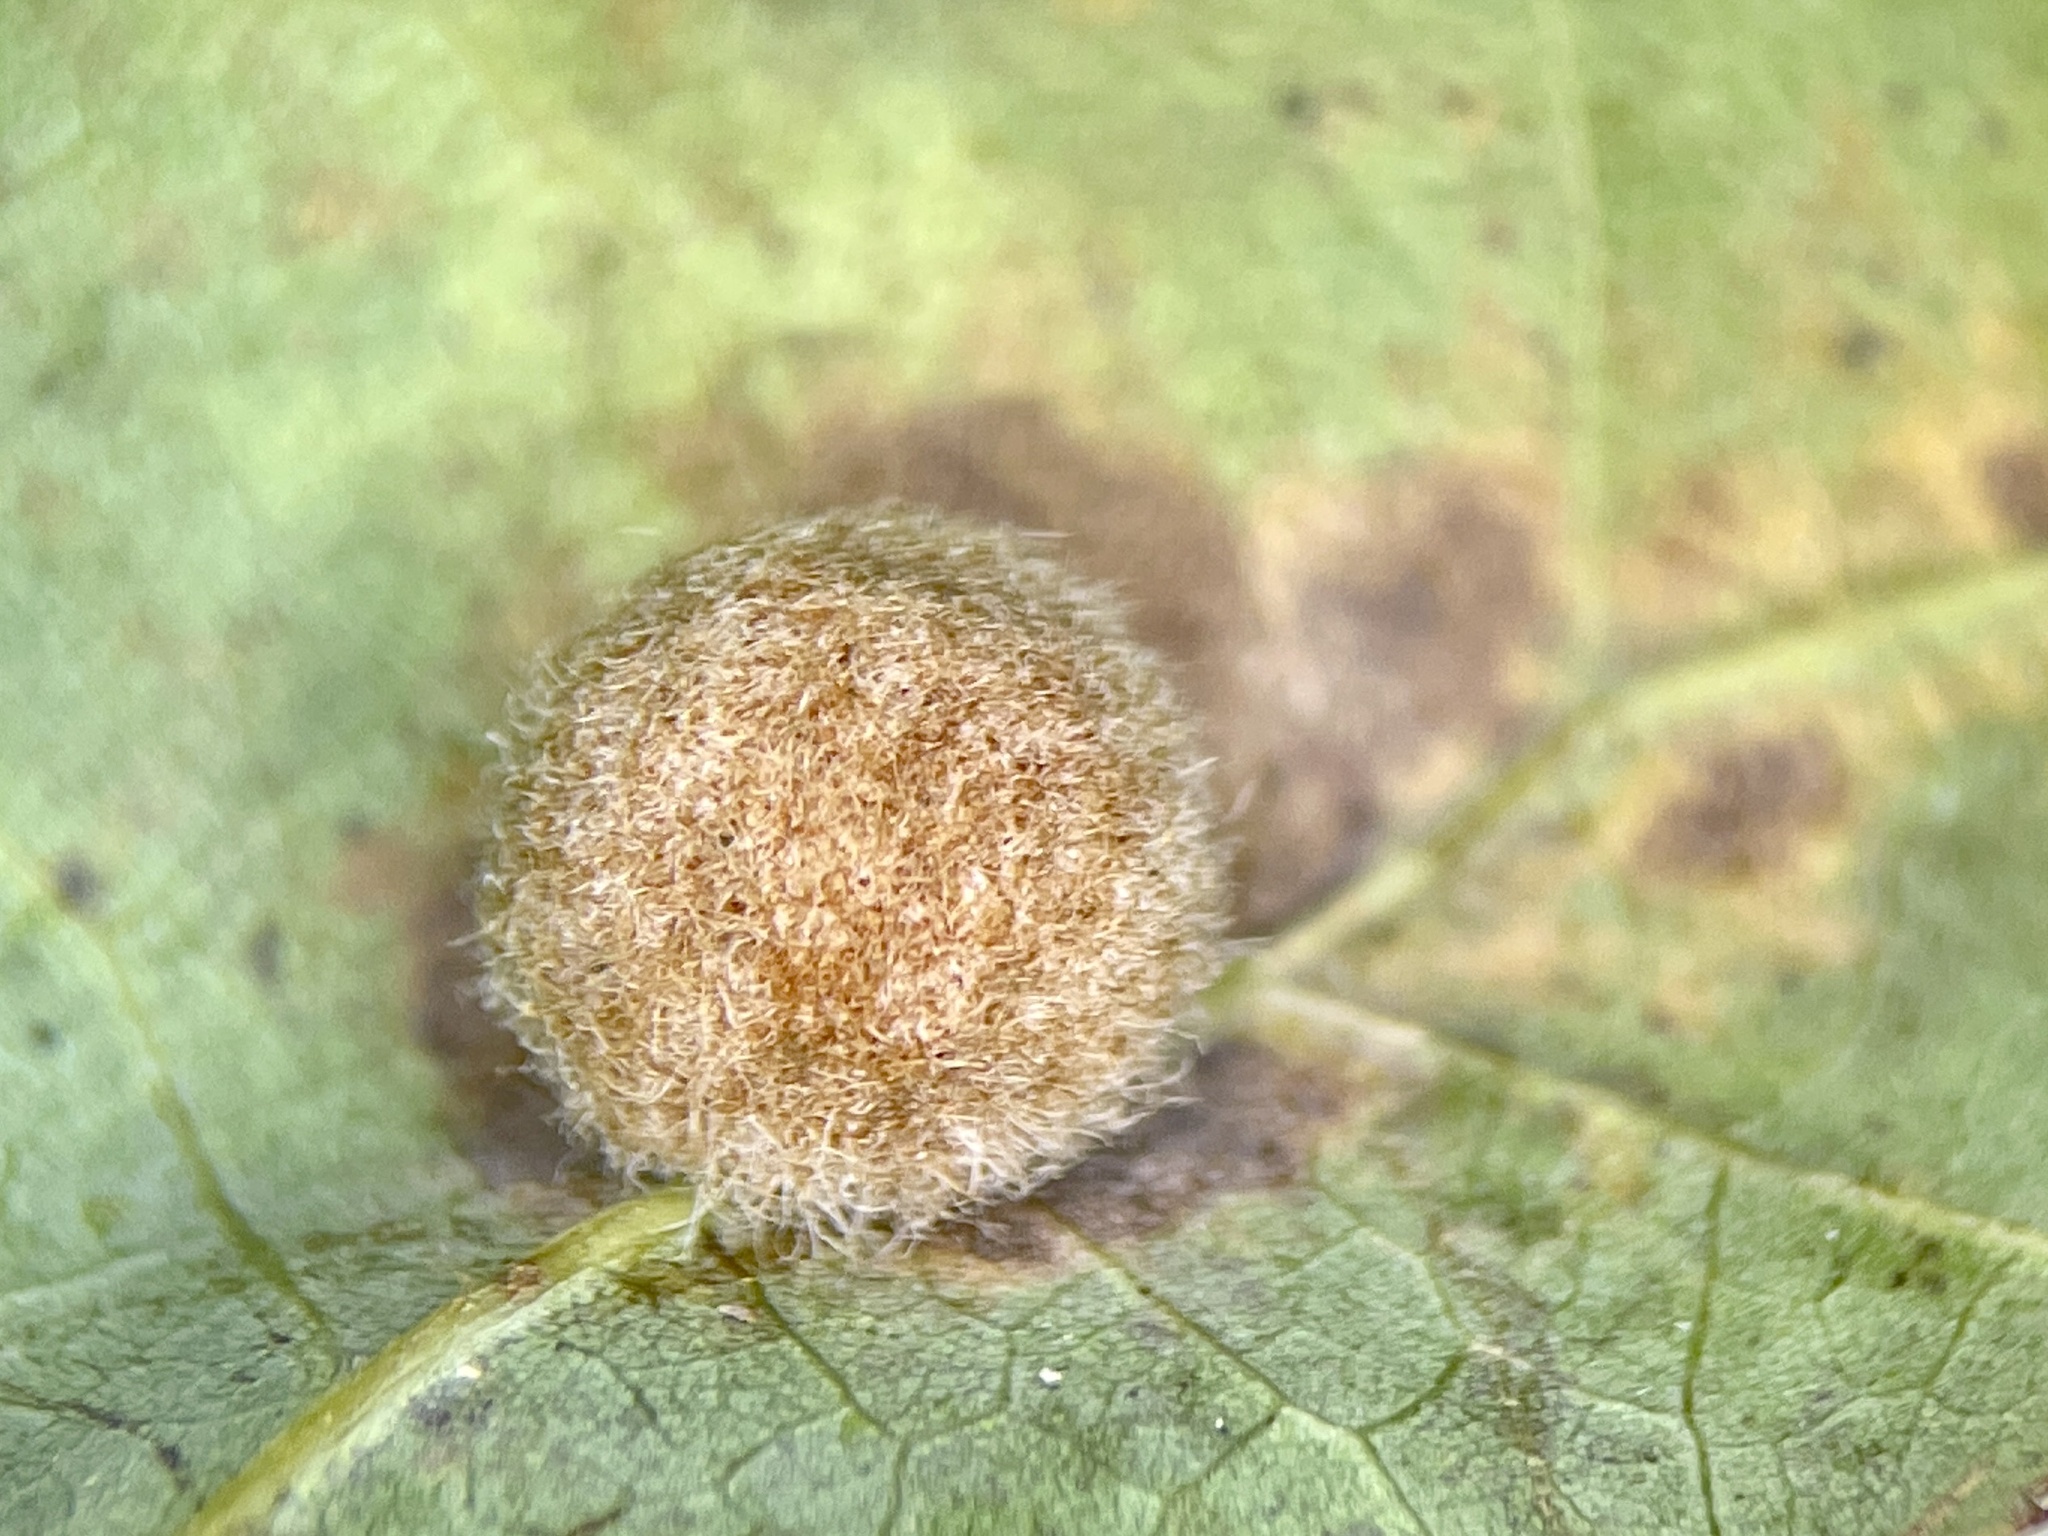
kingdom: Animalia
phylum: Arthropoda
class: Insecta
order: Hymenoptera
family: Cynipidae
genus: Philonix
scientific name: Philonix fulvicollis
